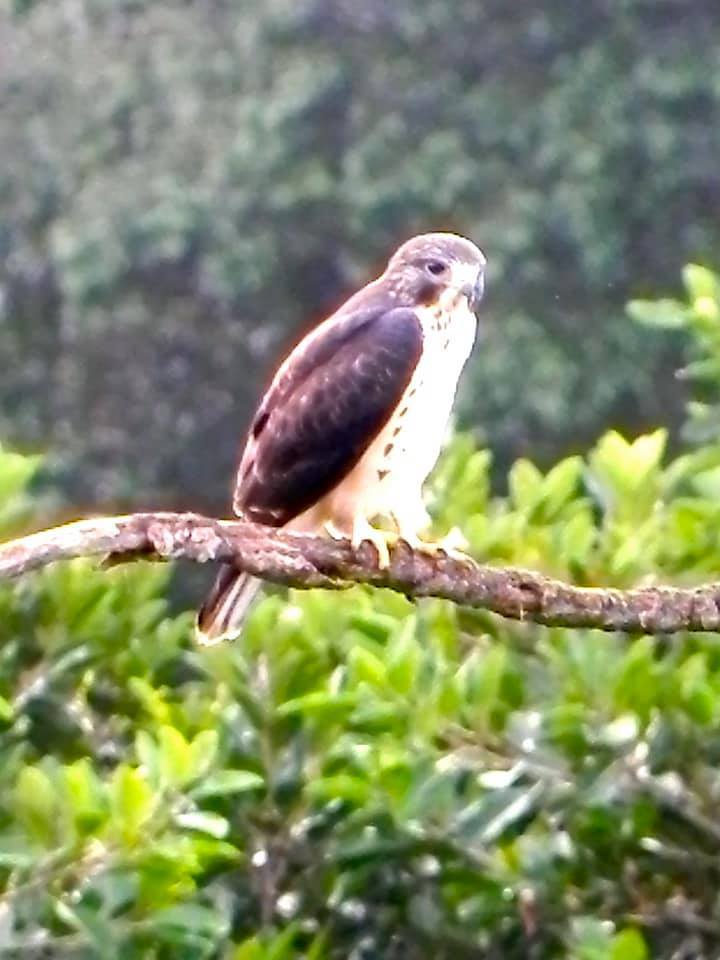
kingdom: Animalia
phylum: Chordata
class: Aves
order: Accipitriformes
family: Accipitridae
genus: Buteo
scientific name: Buteo brachyurus
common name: Short-tailed hawk
